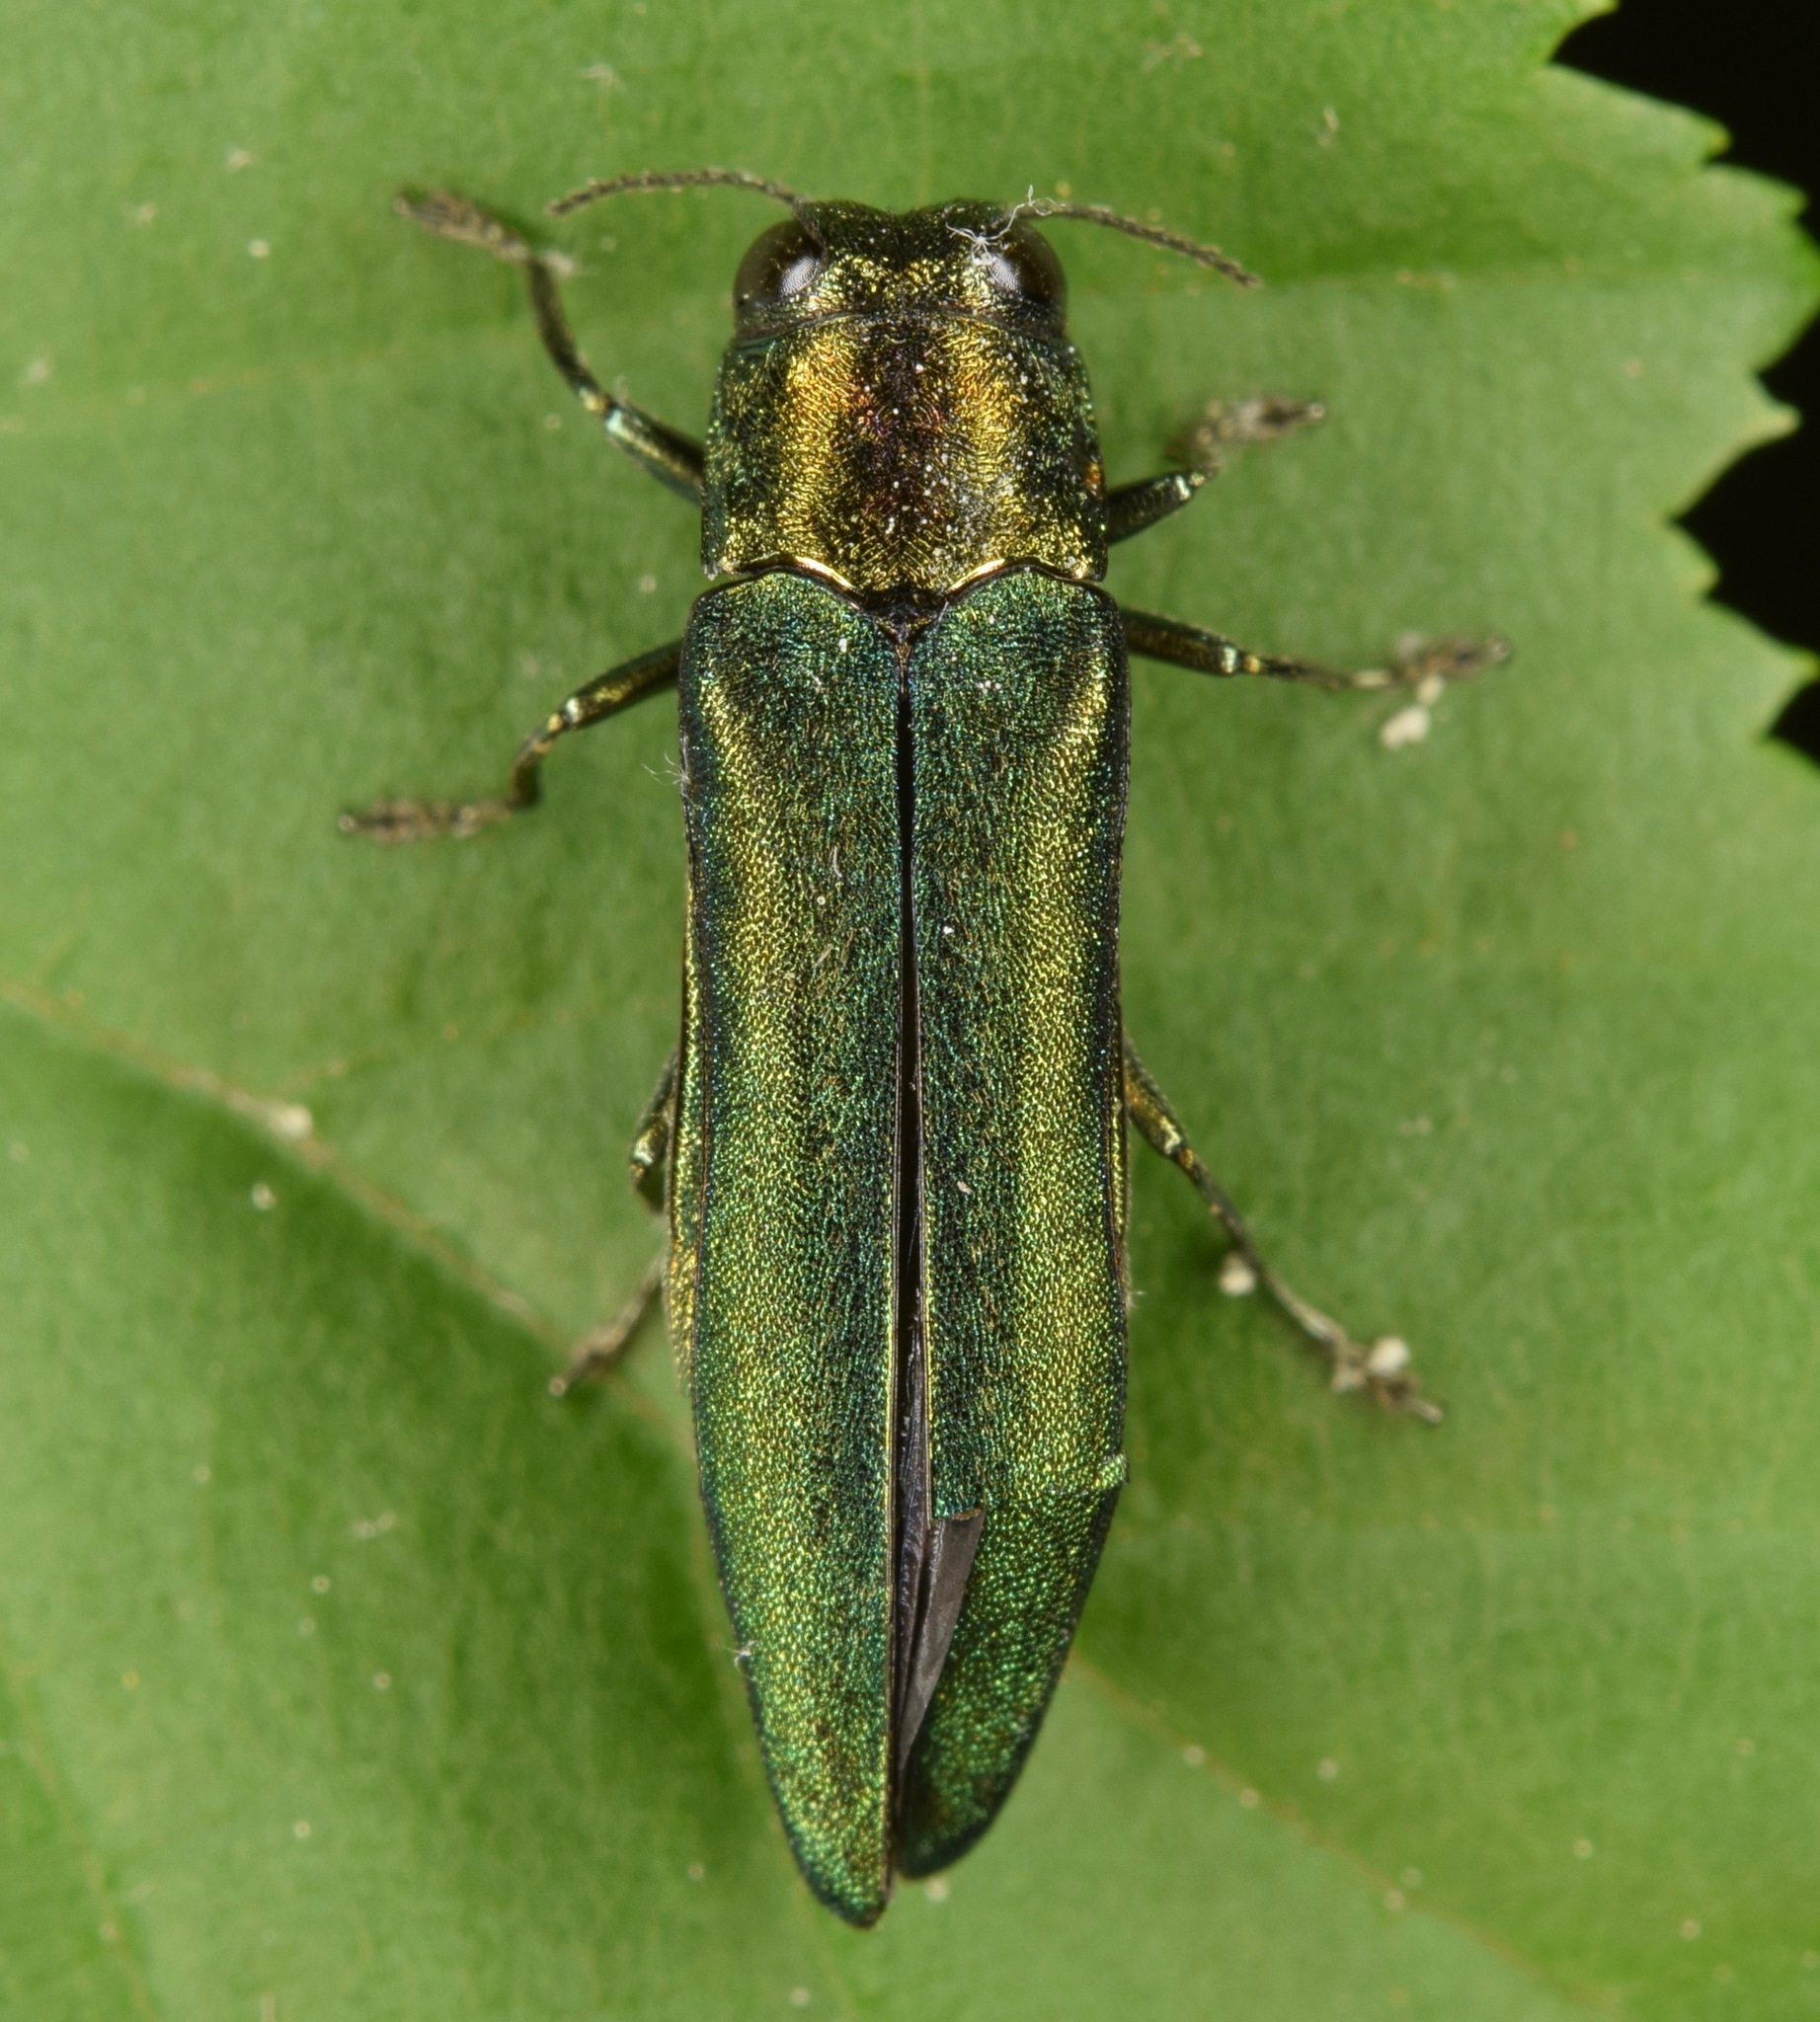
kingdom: Animalia
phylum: Arthropoda
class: Insecta
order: Coleoptera
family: Buprestidae
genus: Agrilus
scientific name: Agrilus planipennis
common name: Emerald ash borer
